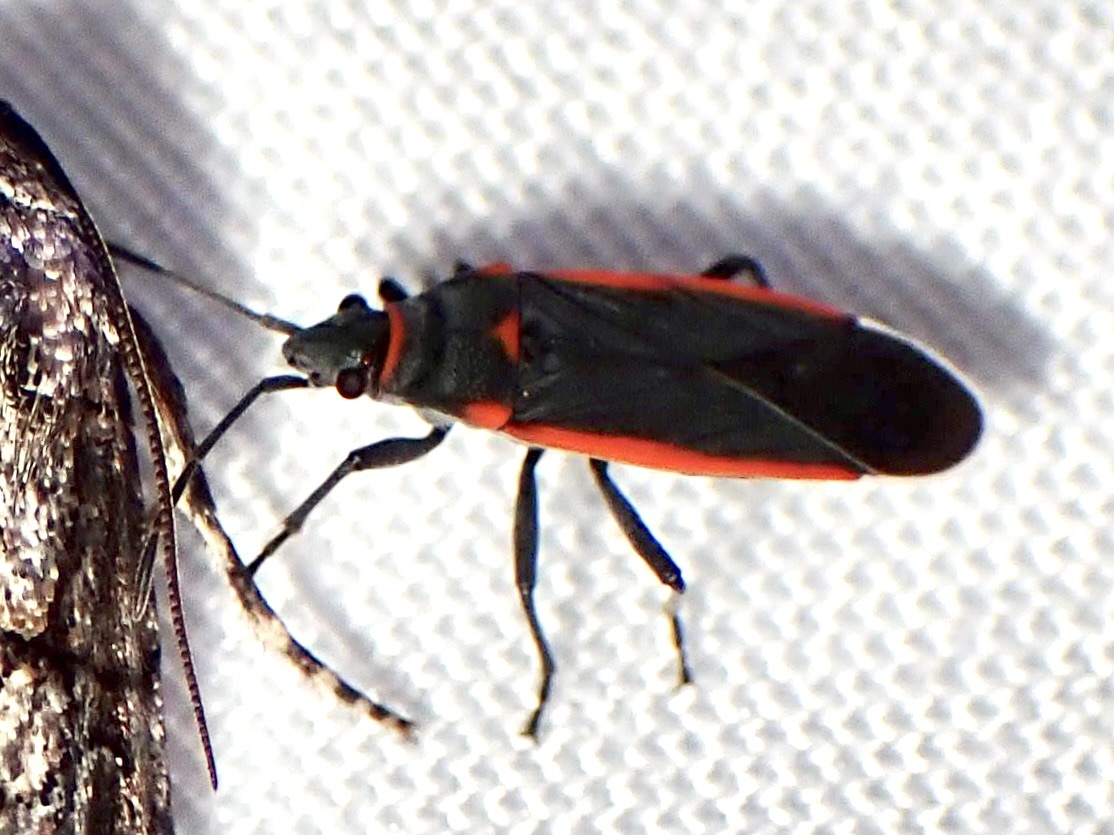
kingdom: Animalia
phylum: Arthropoda
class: Insecta
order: Hemiptera
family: Lygaeidae
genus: Melacoryphus
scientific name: Melacoryphus lateralis
